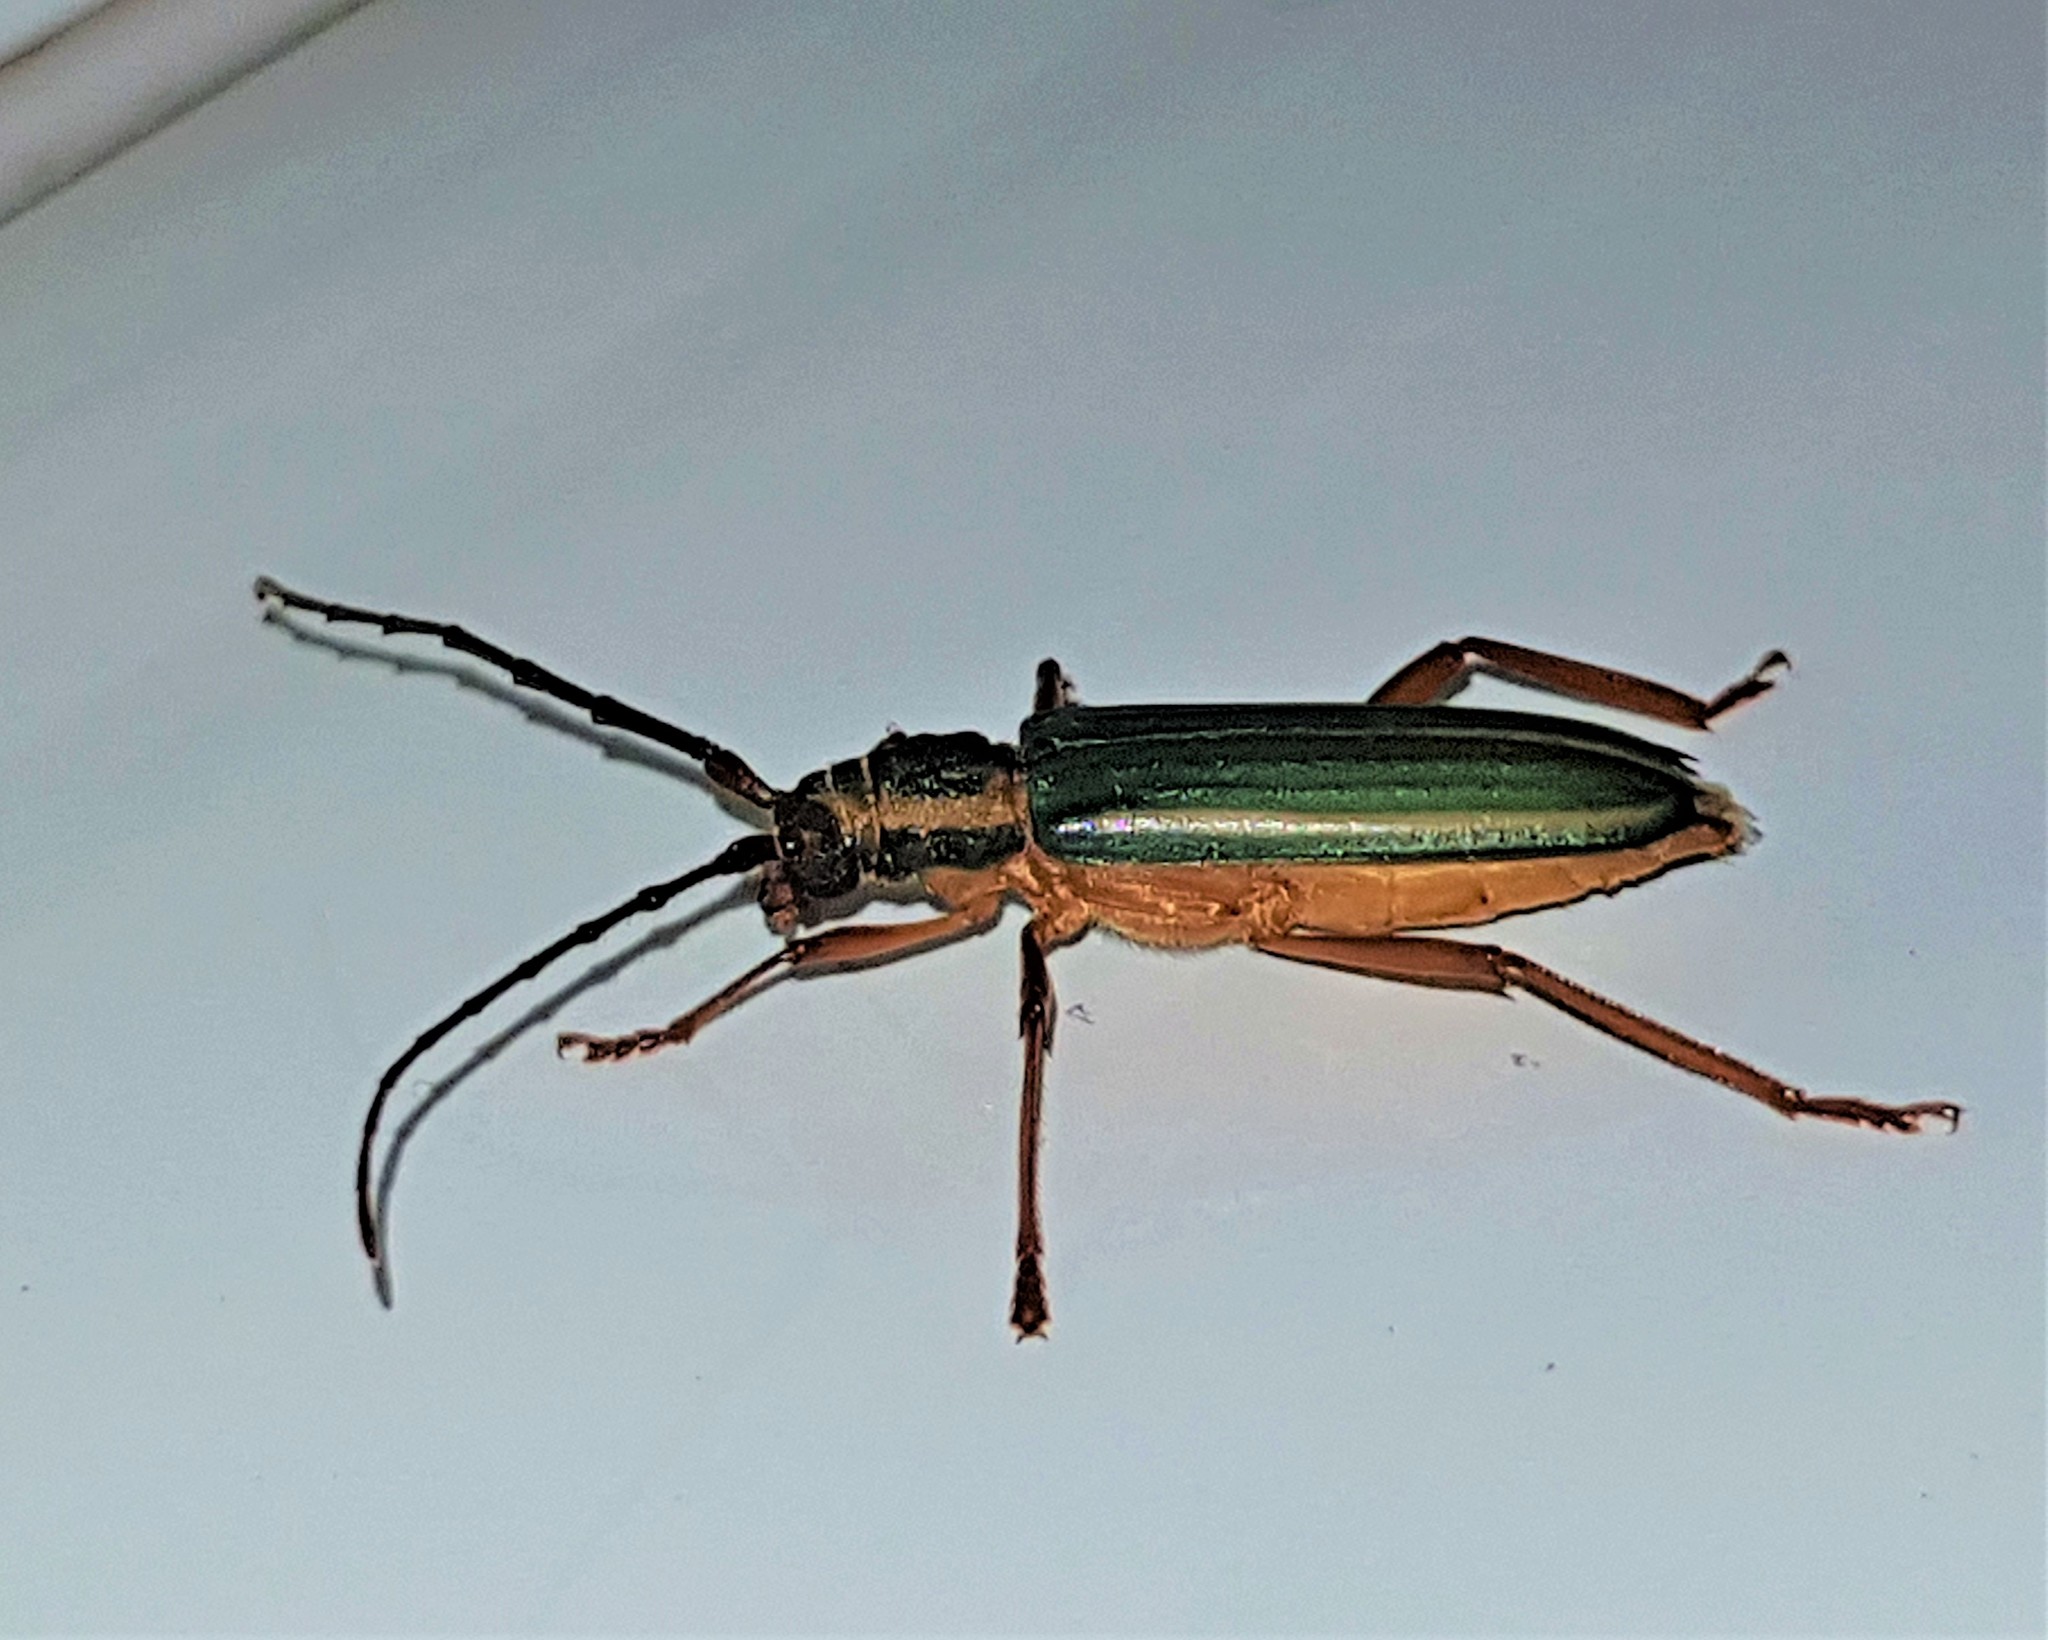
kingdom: Animalia
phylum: Arthropoda
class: Insecta
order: Coleoptera
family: Cerambycidae
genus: Chlorida
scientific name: Chlorida festiva
